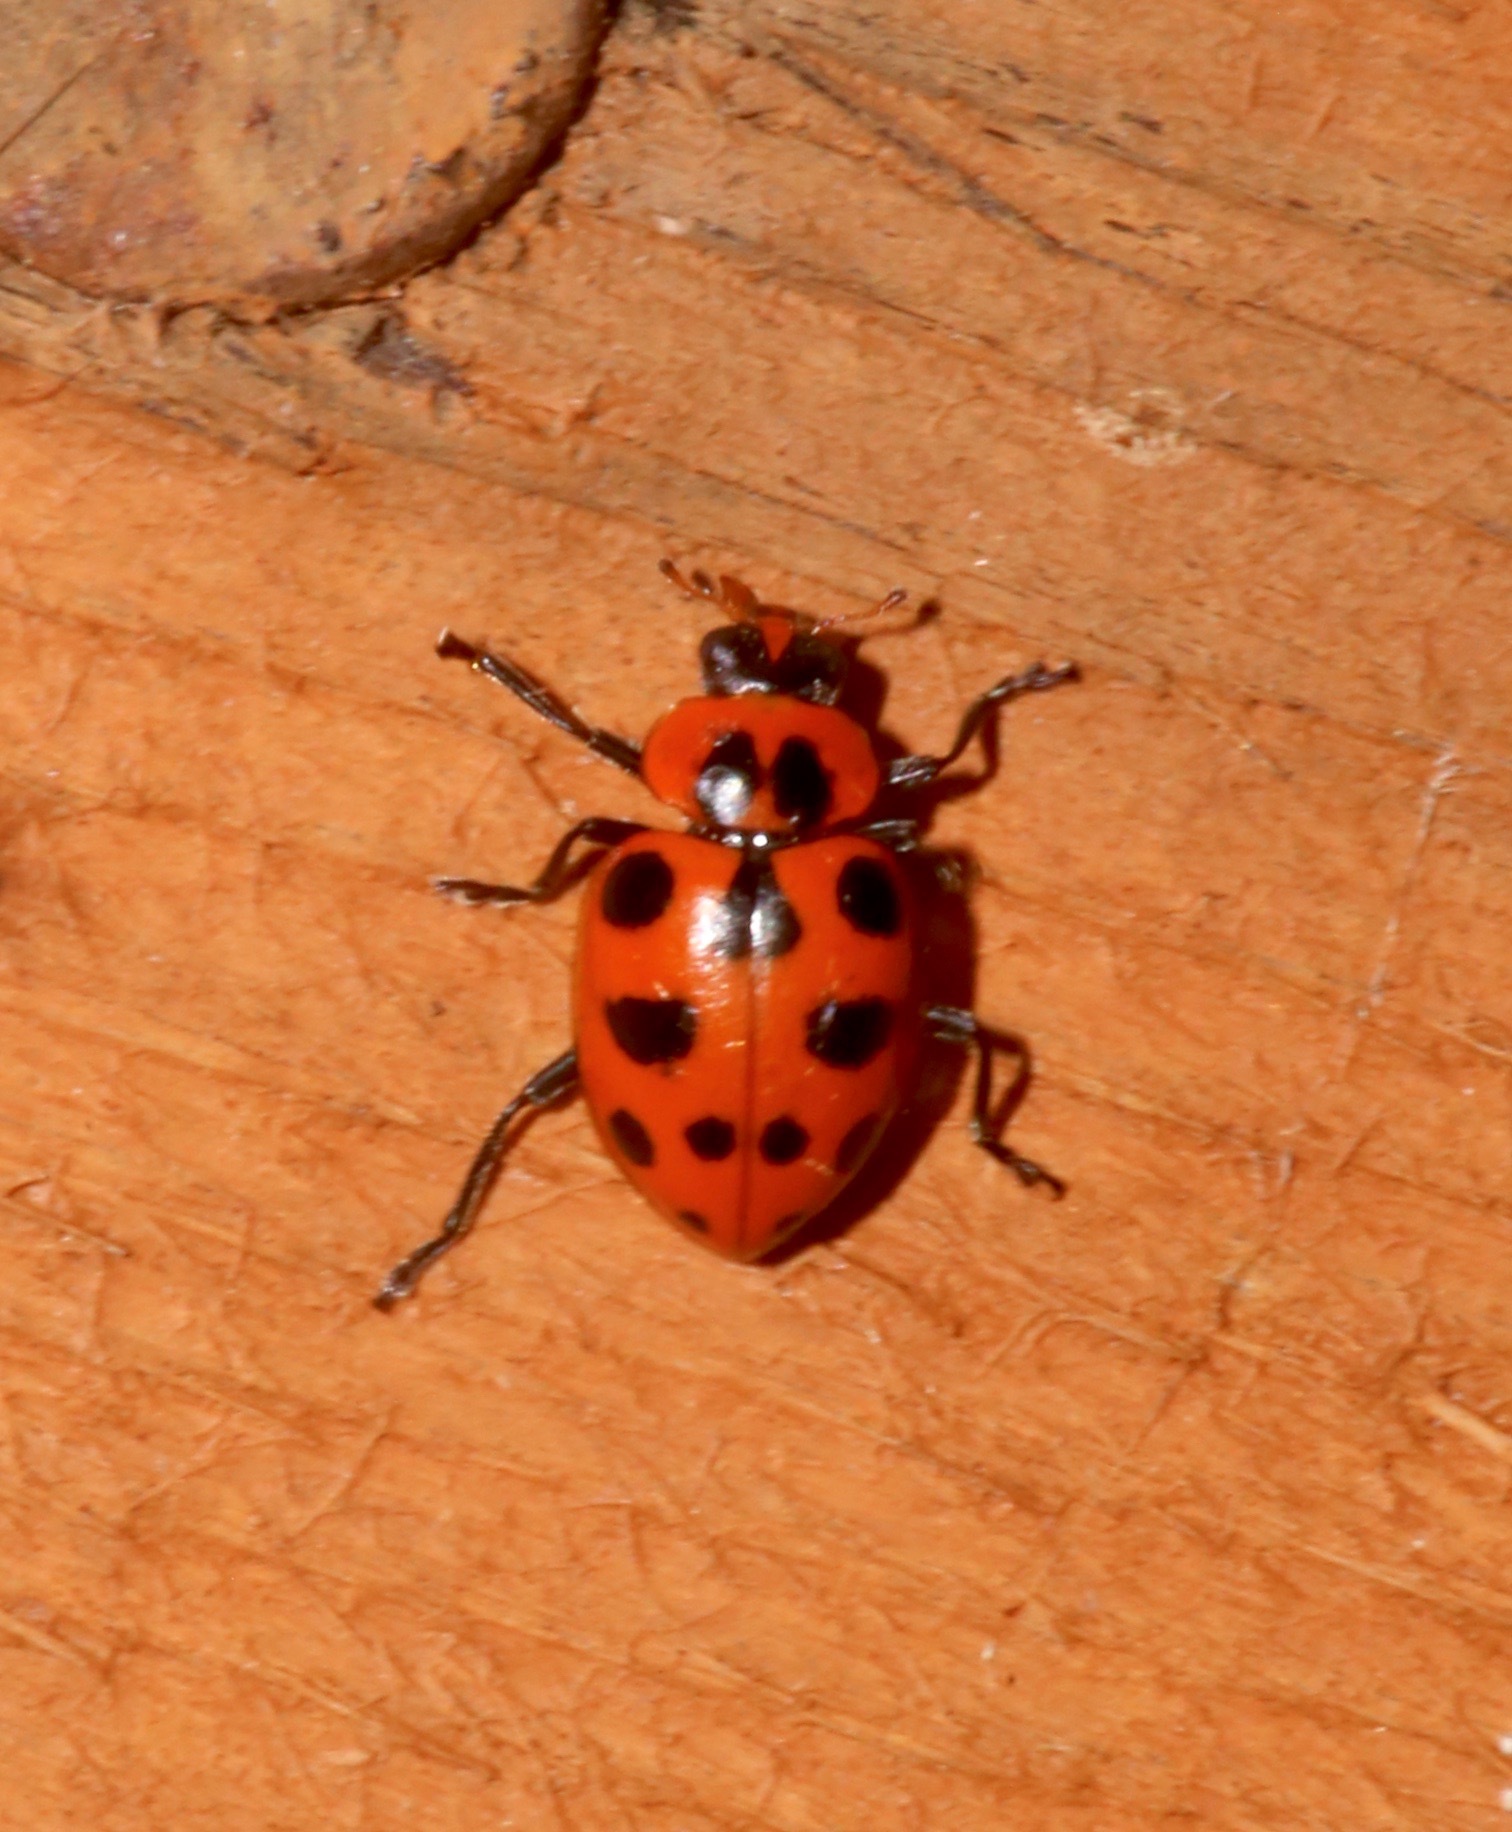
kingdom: Animalia
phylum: Arthropoda
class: Insecta
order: Coleoptera
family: Coccinellidae
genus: Coleomegilla
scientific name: Coleomegilla maculata
